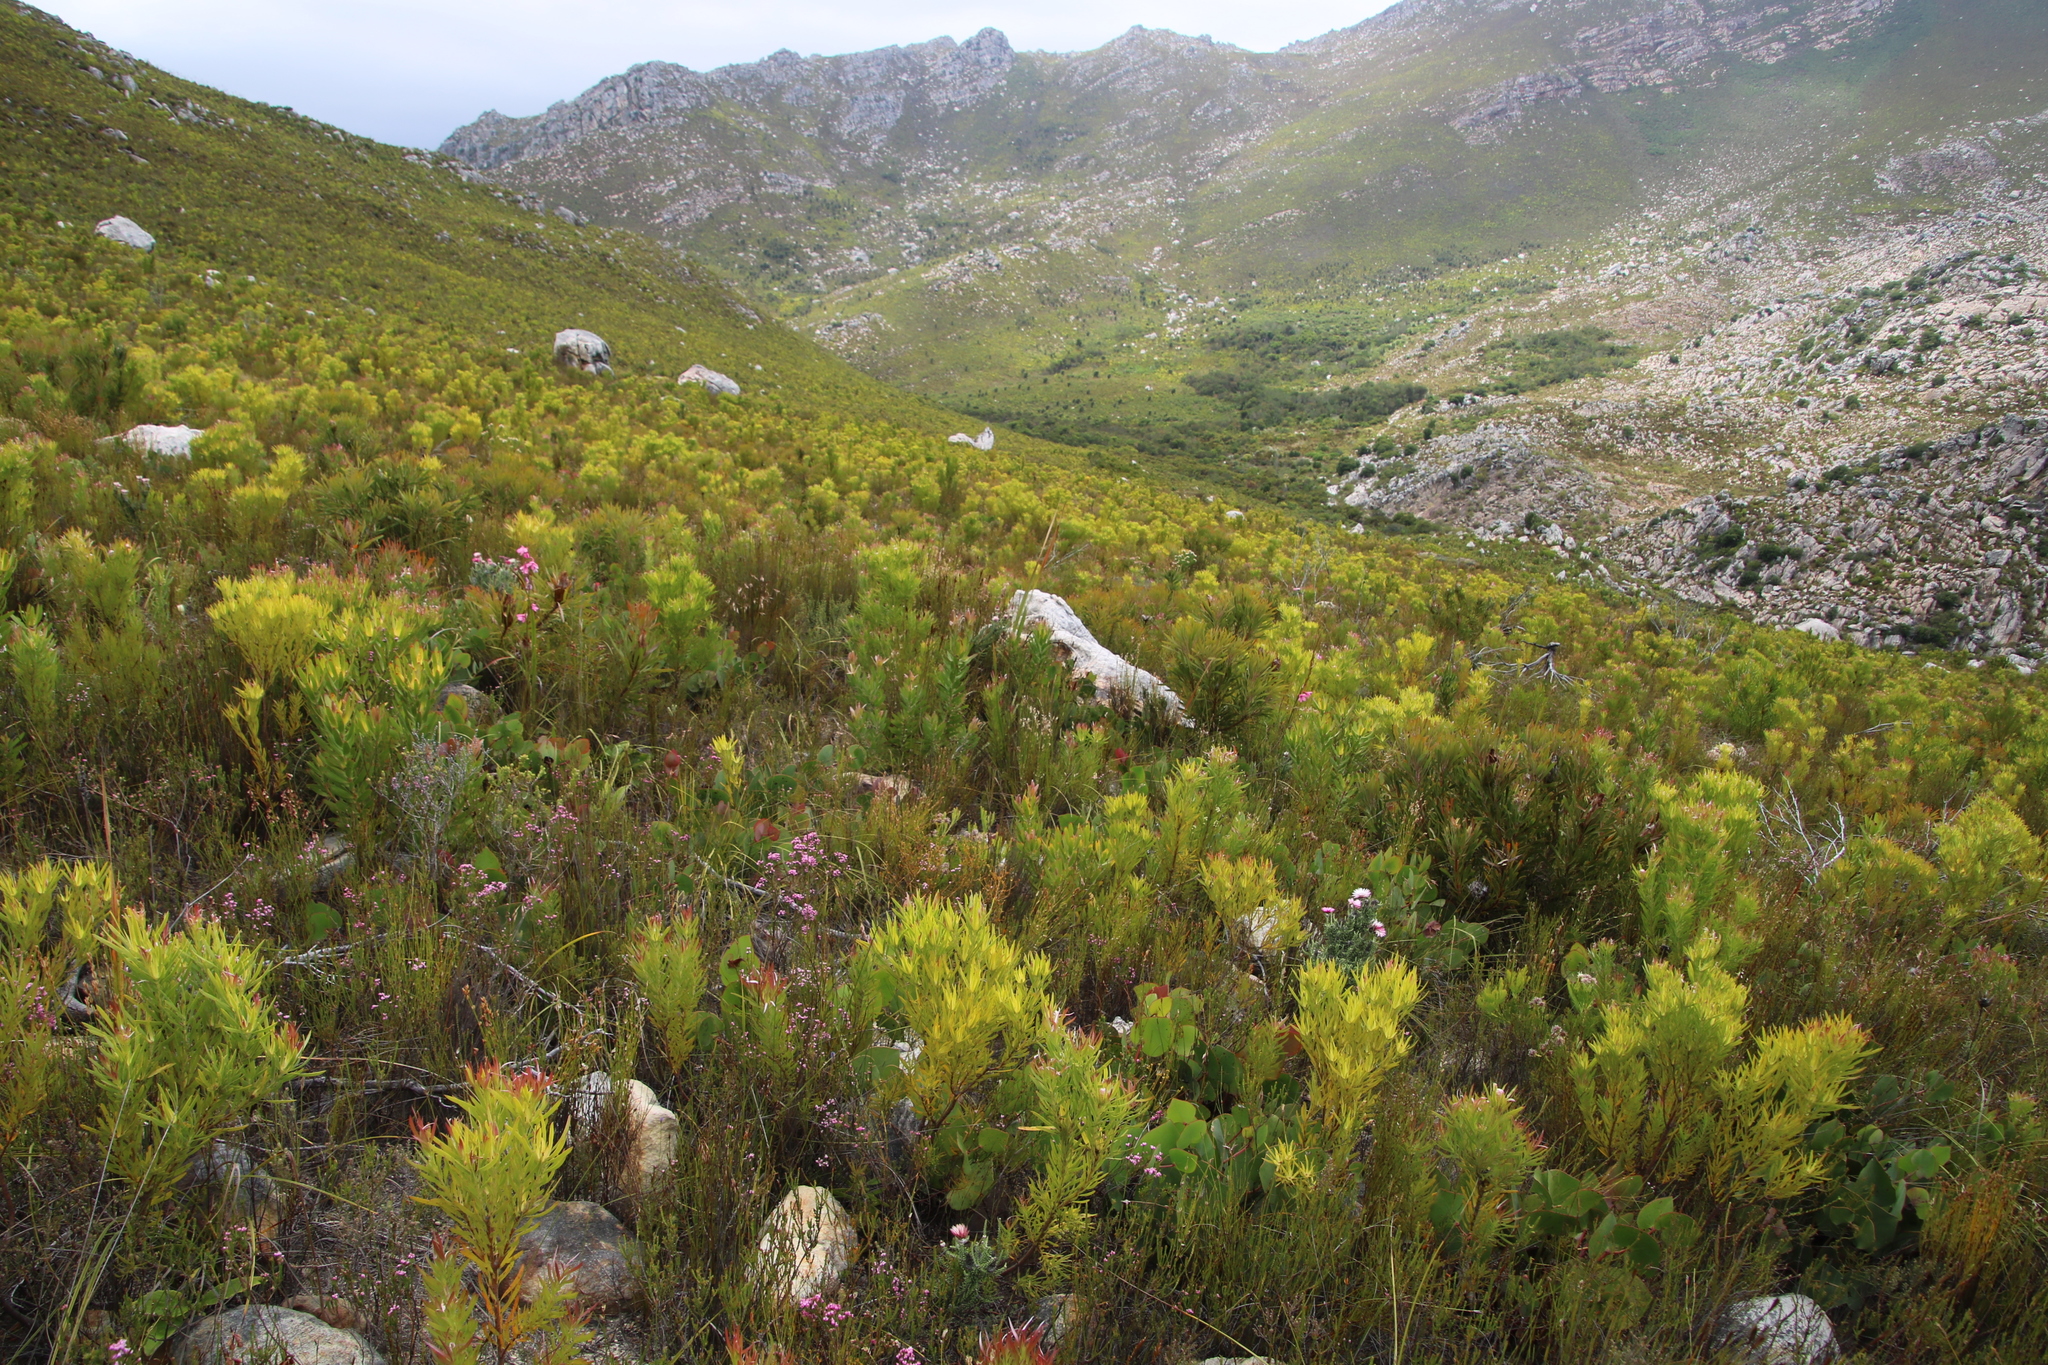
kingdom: Plantae
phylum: Tracheophyta
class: Magnoliopsida
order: Proteales
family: Proteaceae
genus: Leucadendron
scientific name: Leucadendron xanthoconus
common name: Sickle-leaf conebush
